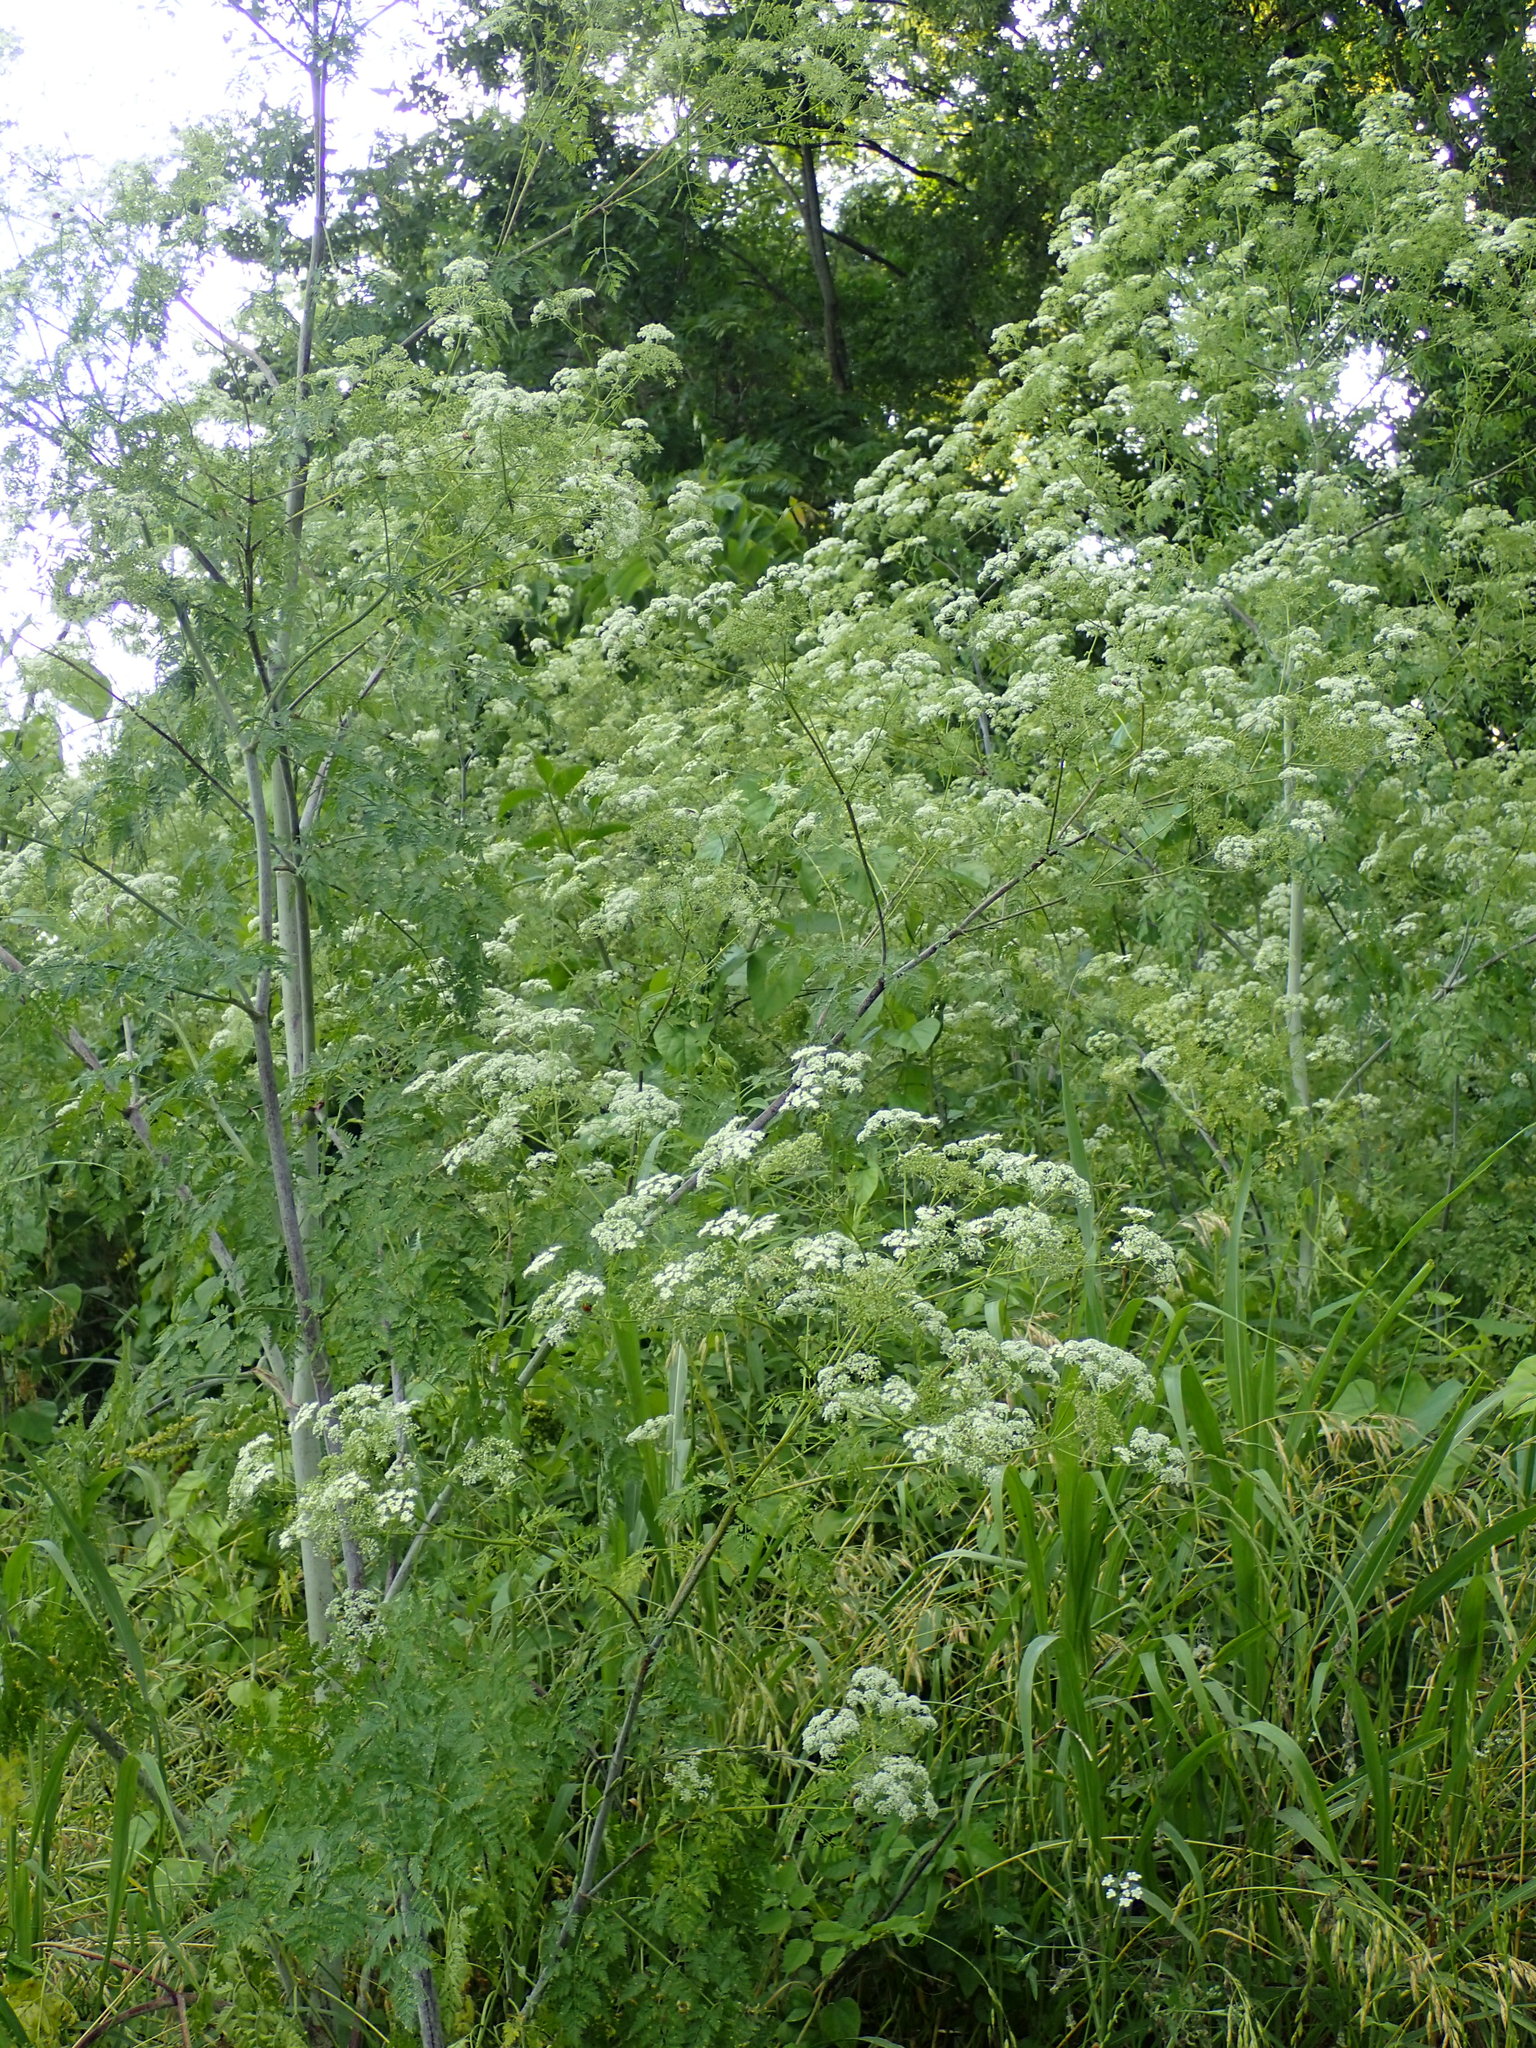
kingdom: Plantae
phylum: Tracheophyta
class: Magnoliopsida
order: Apiales
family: Apiaceae
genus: Conium
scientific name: Conium maculatum
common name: Hemlock
